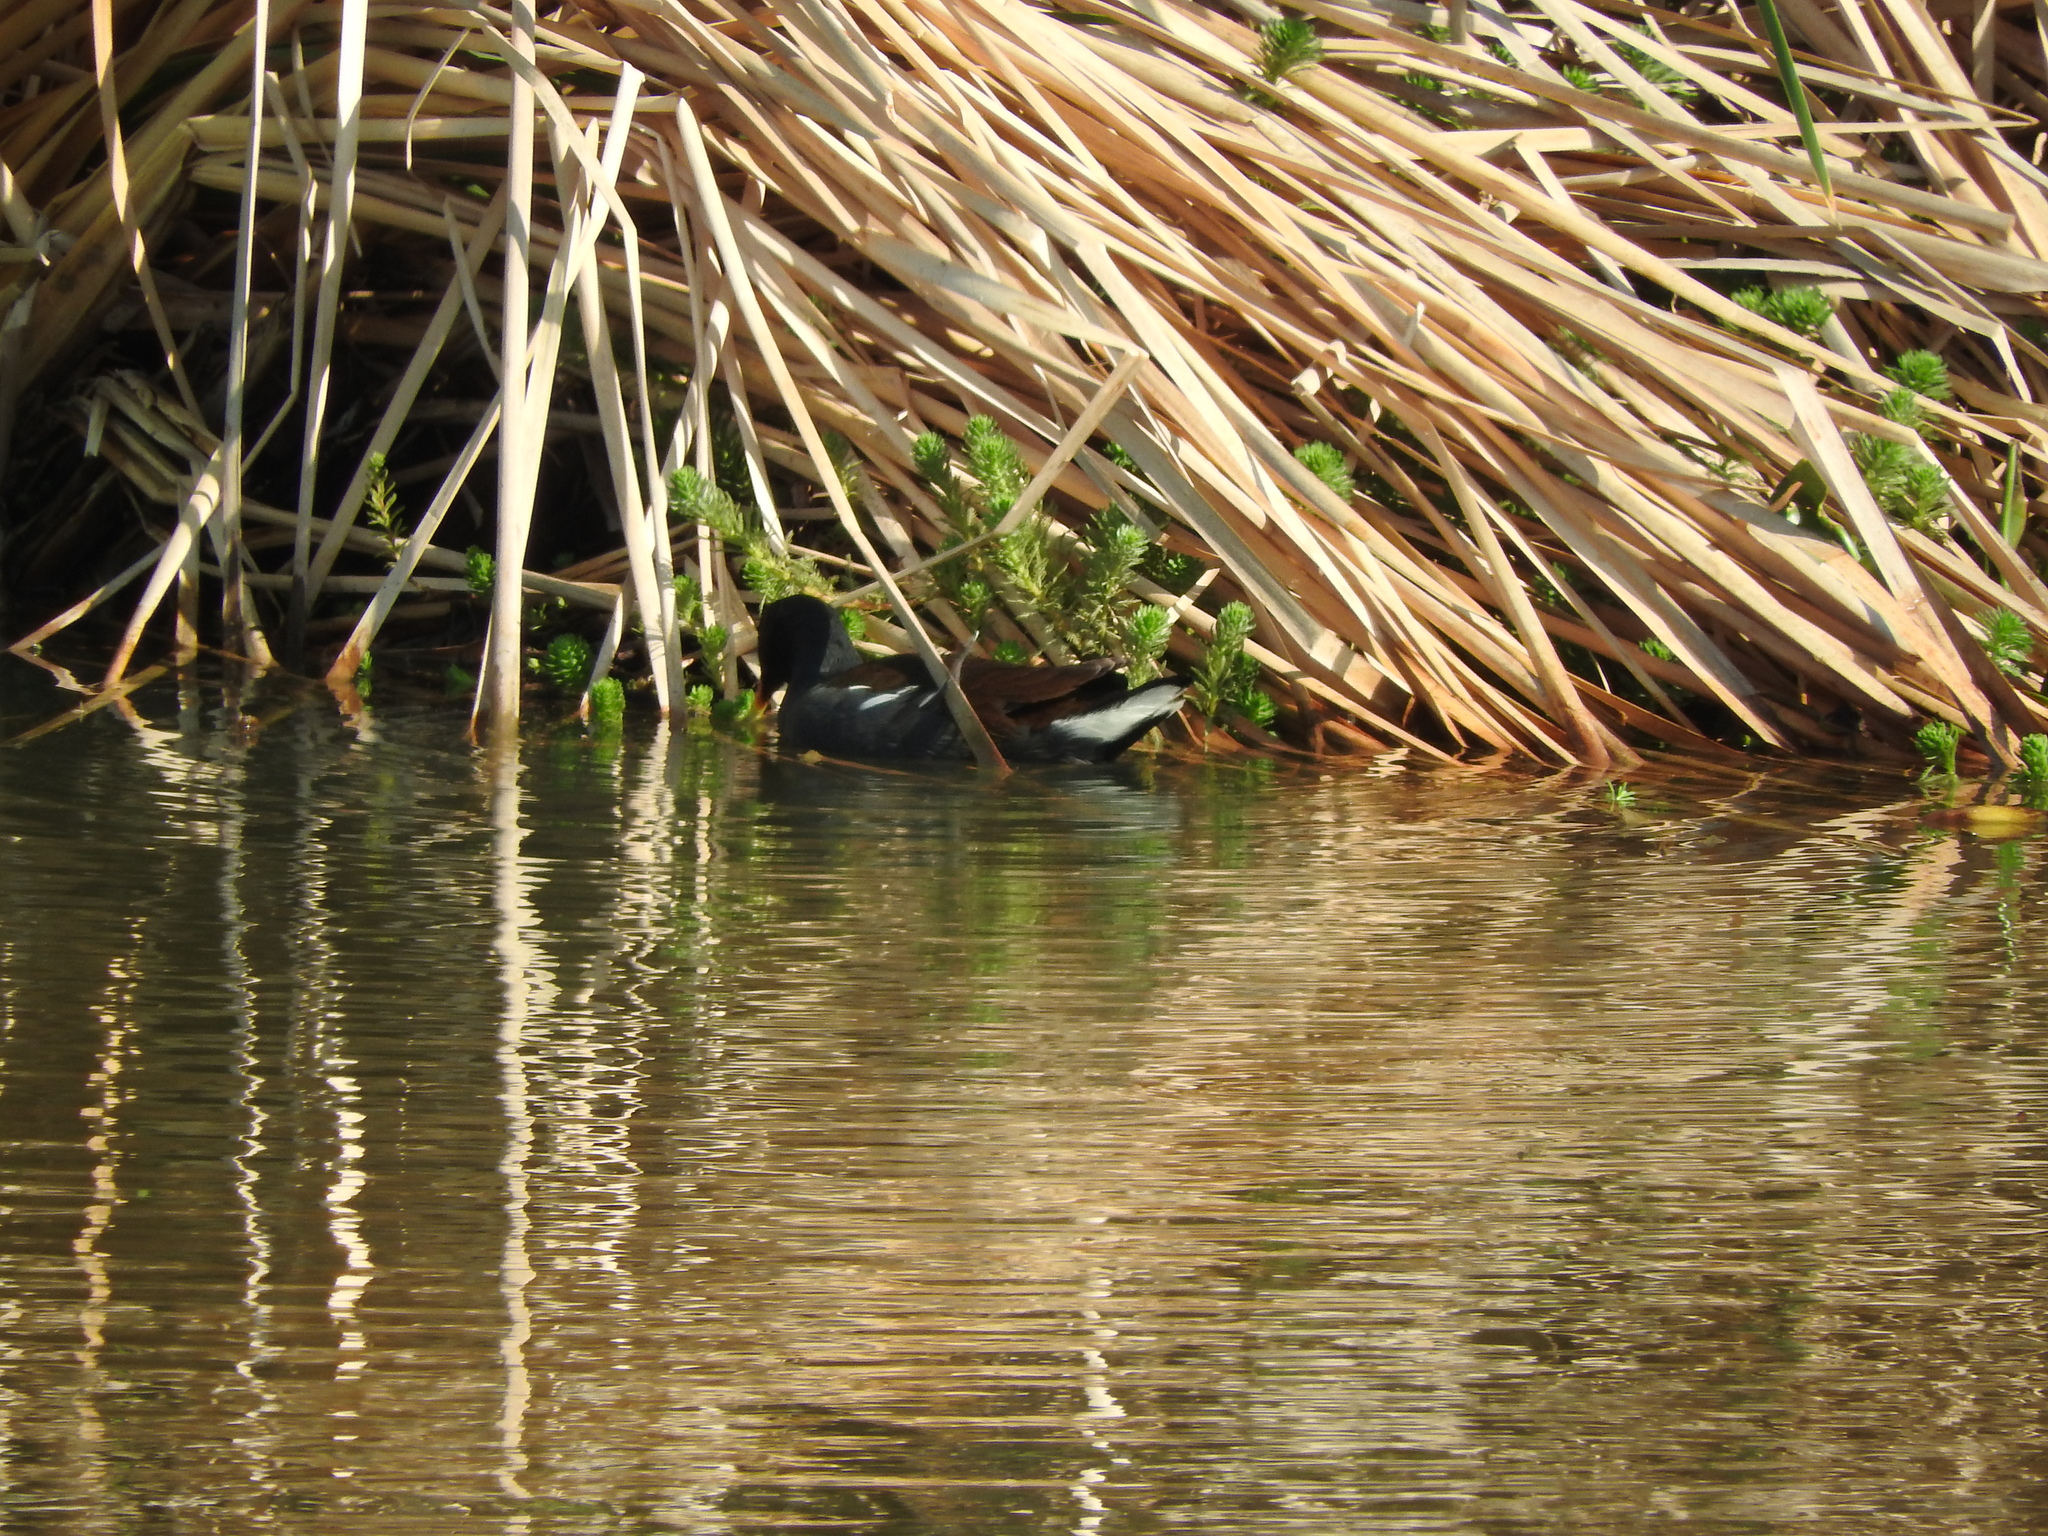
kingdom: Animalia
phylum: Chordata
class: Aves
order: Gruiformes
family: Rallidae
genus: Gallinula
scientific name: Gallinula chloropus
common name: Common moorhen
